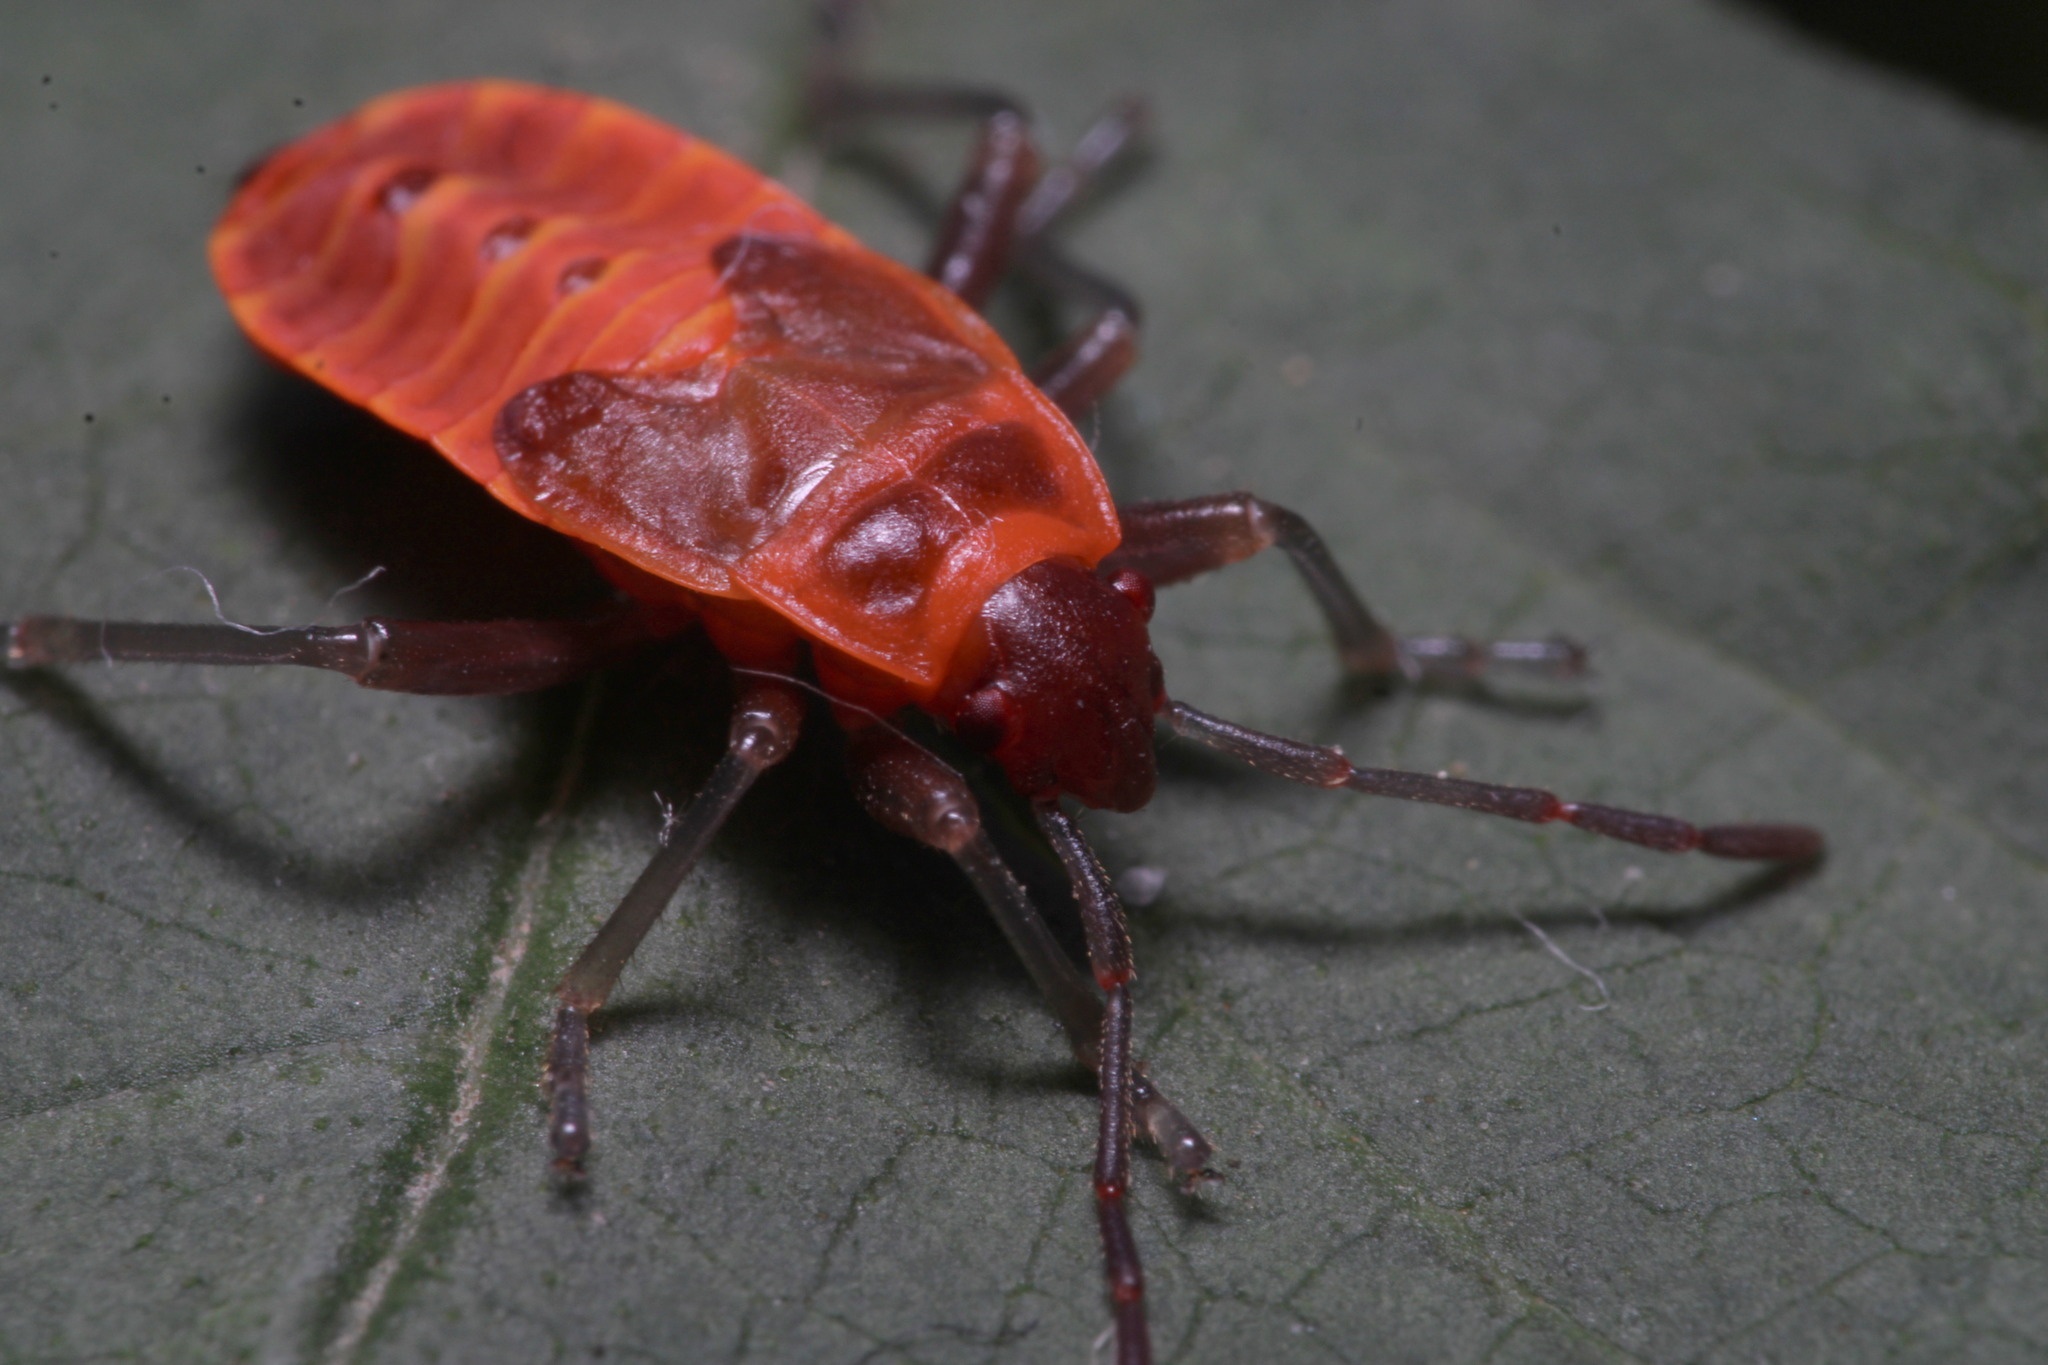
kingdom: Animalia
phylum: Arthropoda
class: Insecta
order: Hemiptera
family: Pyrrhocoridae
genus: Pyrrhocoris
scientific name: Pyrrhocoris apterus
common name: Firebug
